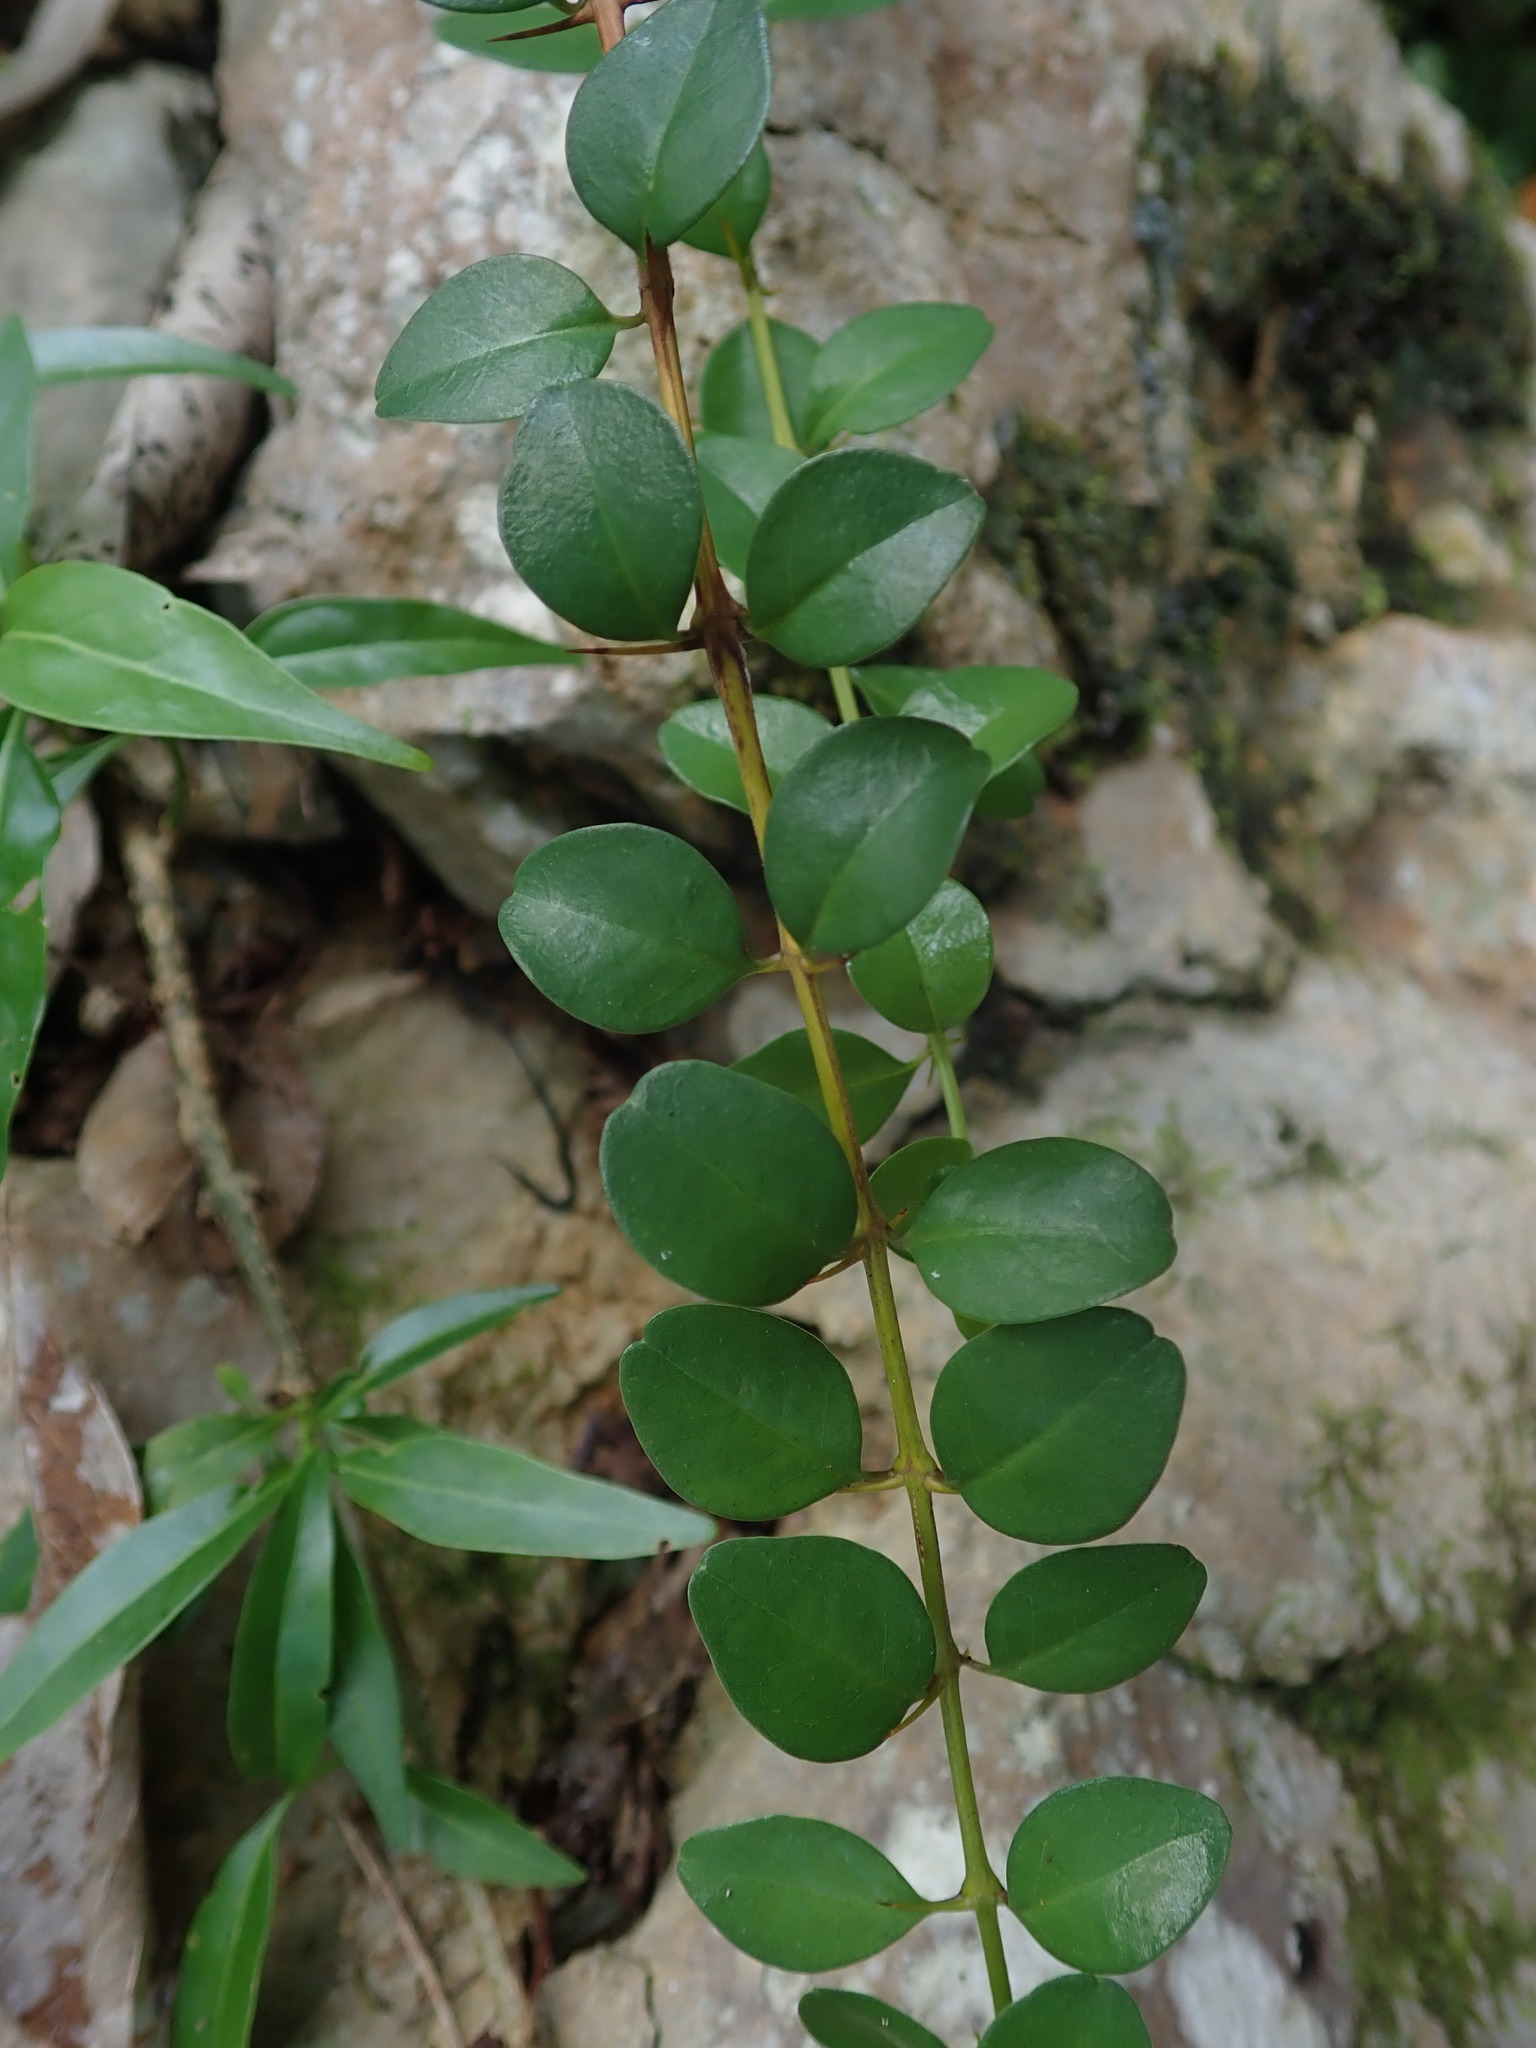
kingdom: Plantae
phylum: Tracheophyta
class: Magnoliopsida
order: Lamiales
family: Acanthaceae
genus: Oplonia
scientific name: Oplonia spinosa
